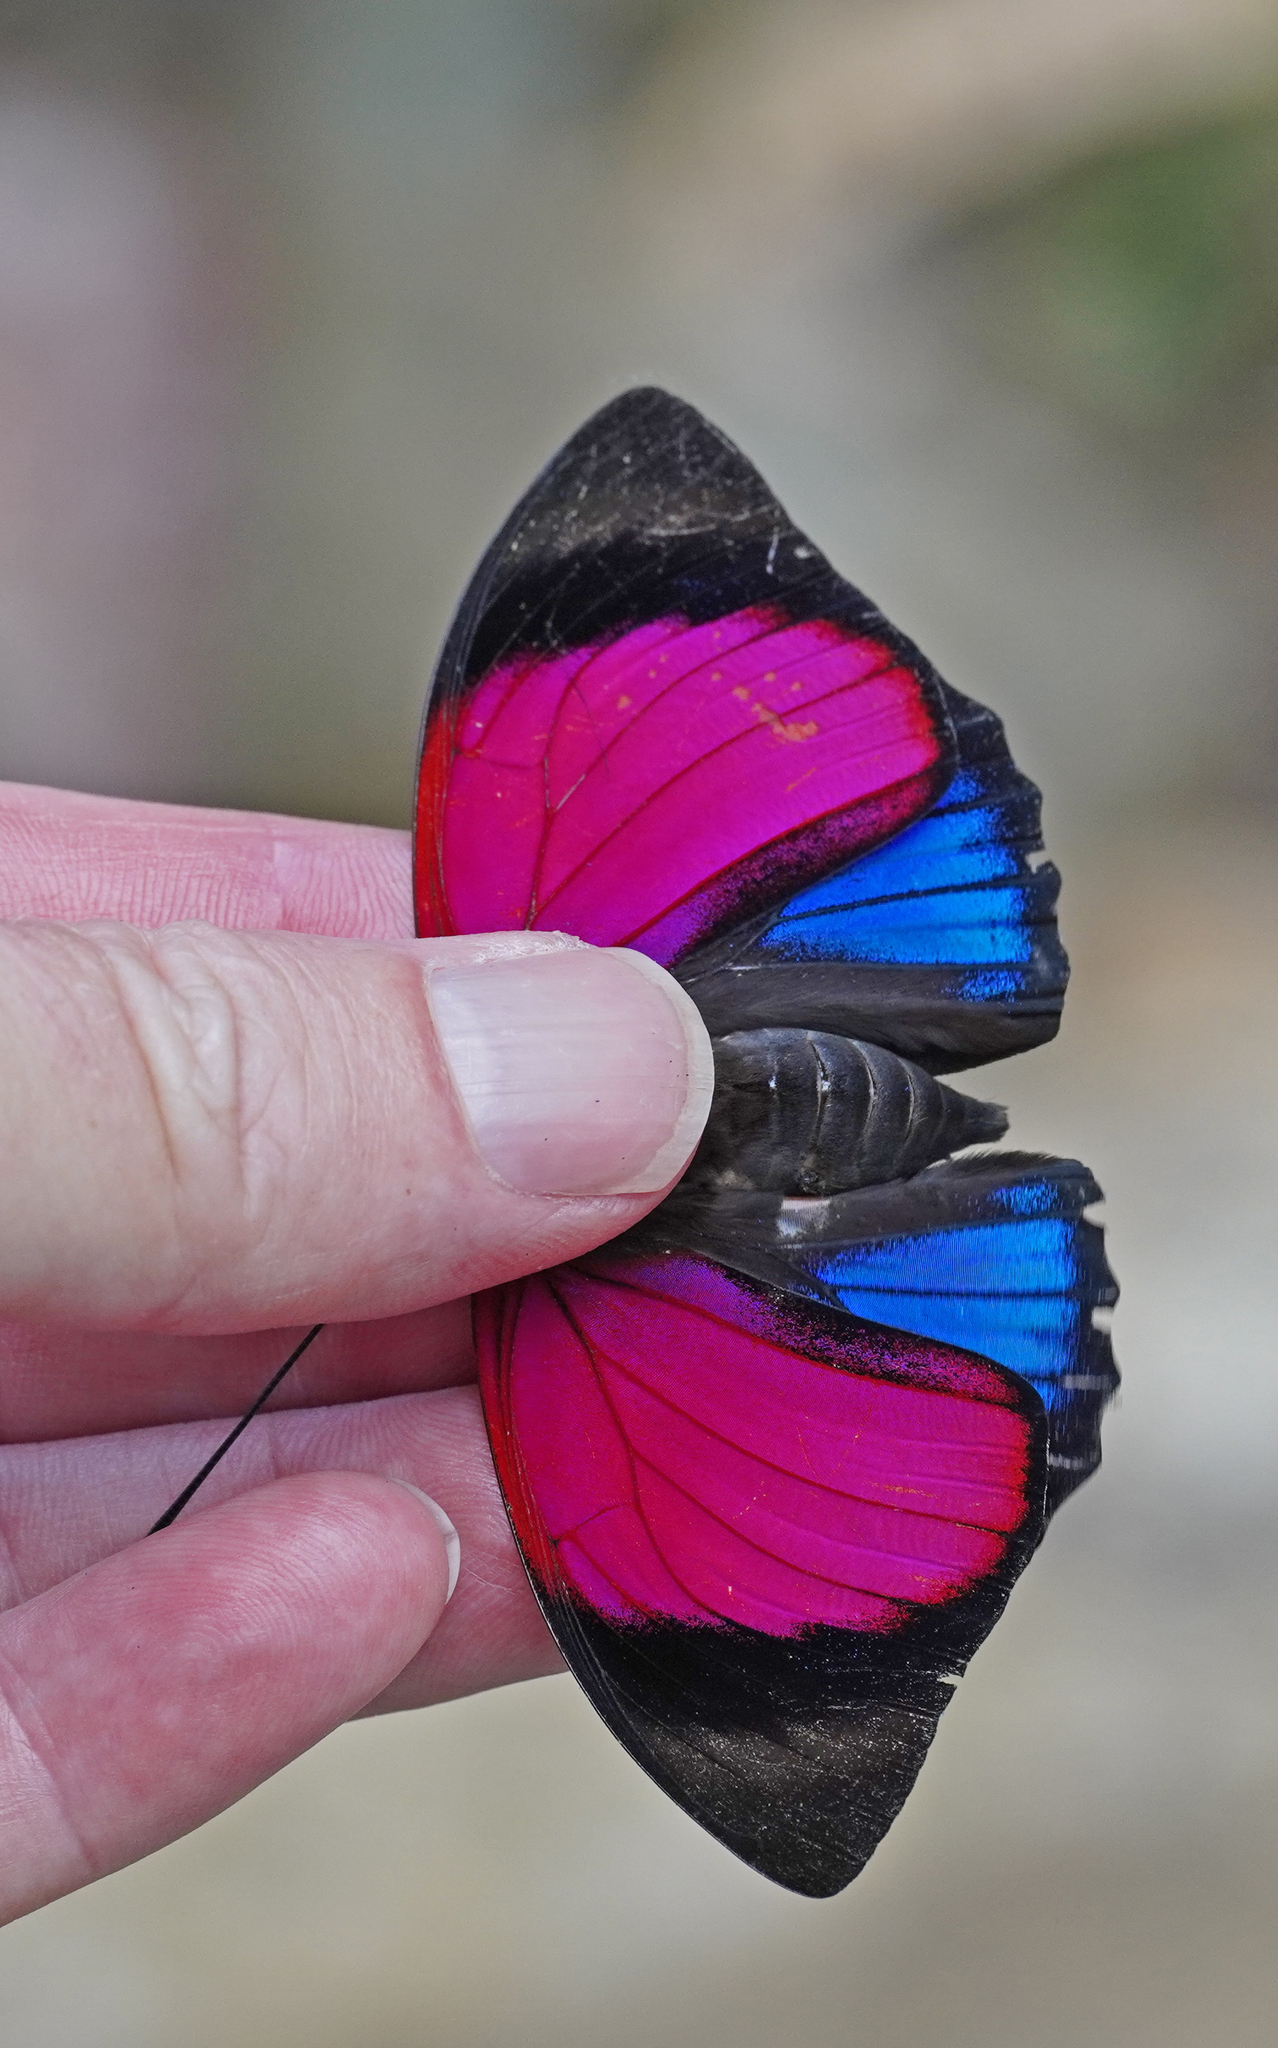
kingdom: Animalia
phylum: Arthropoda
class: Insecta
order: Lepidoptera
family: Nymphalidae
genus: Prepona
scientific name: Prepona claudina
